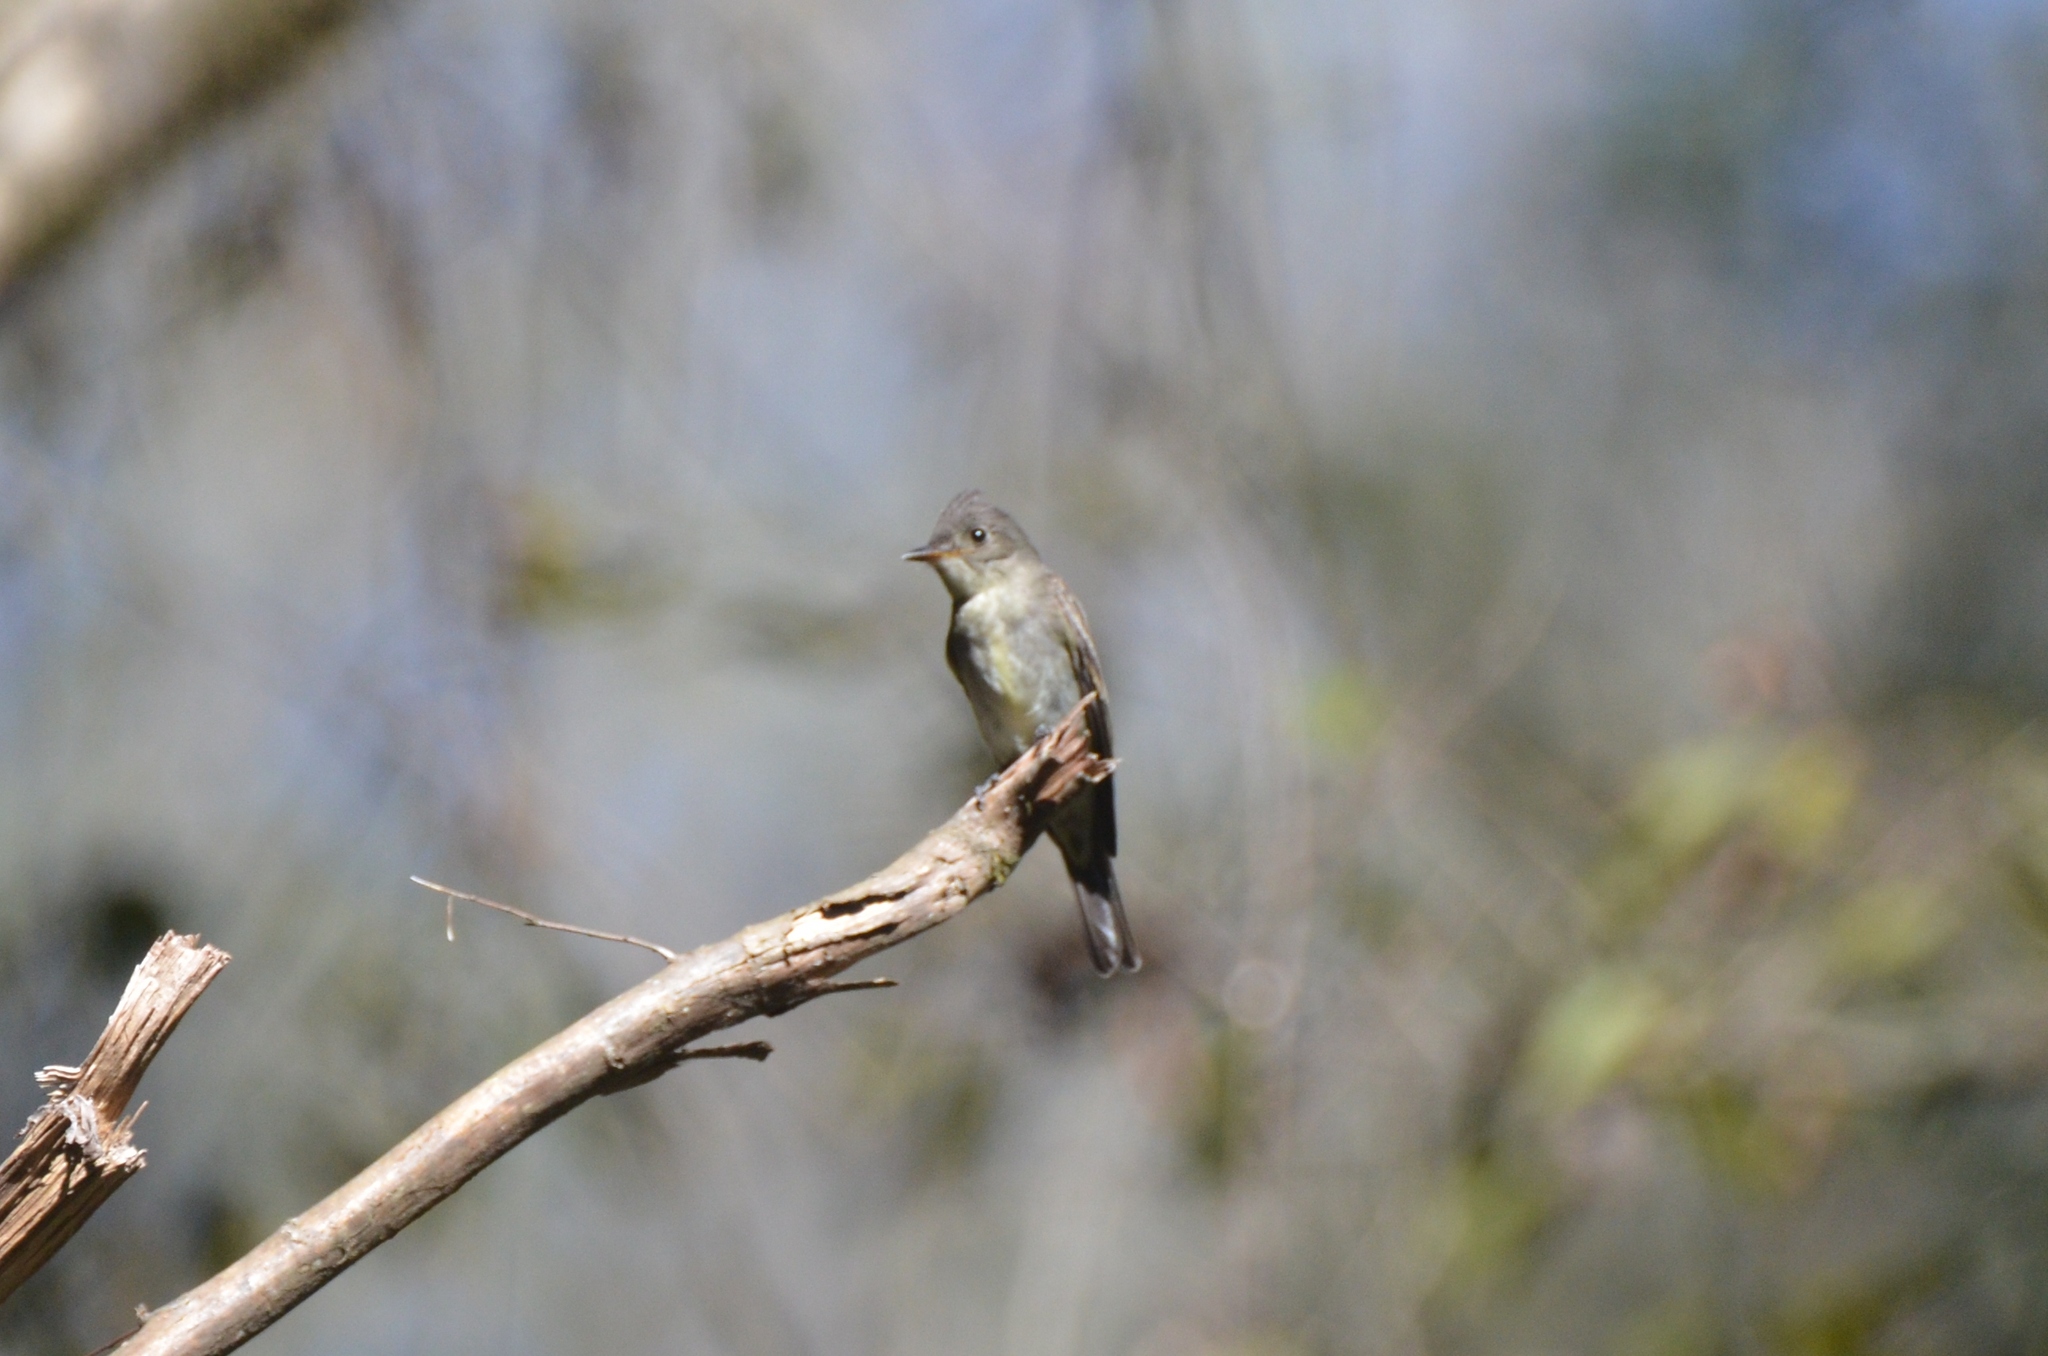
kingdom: Animalia
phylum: Chordata
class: Aves
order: Passeriformes
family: Tyrannidae
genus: Contopus
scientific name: Contopus virens
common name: Eastern wood-pewee
